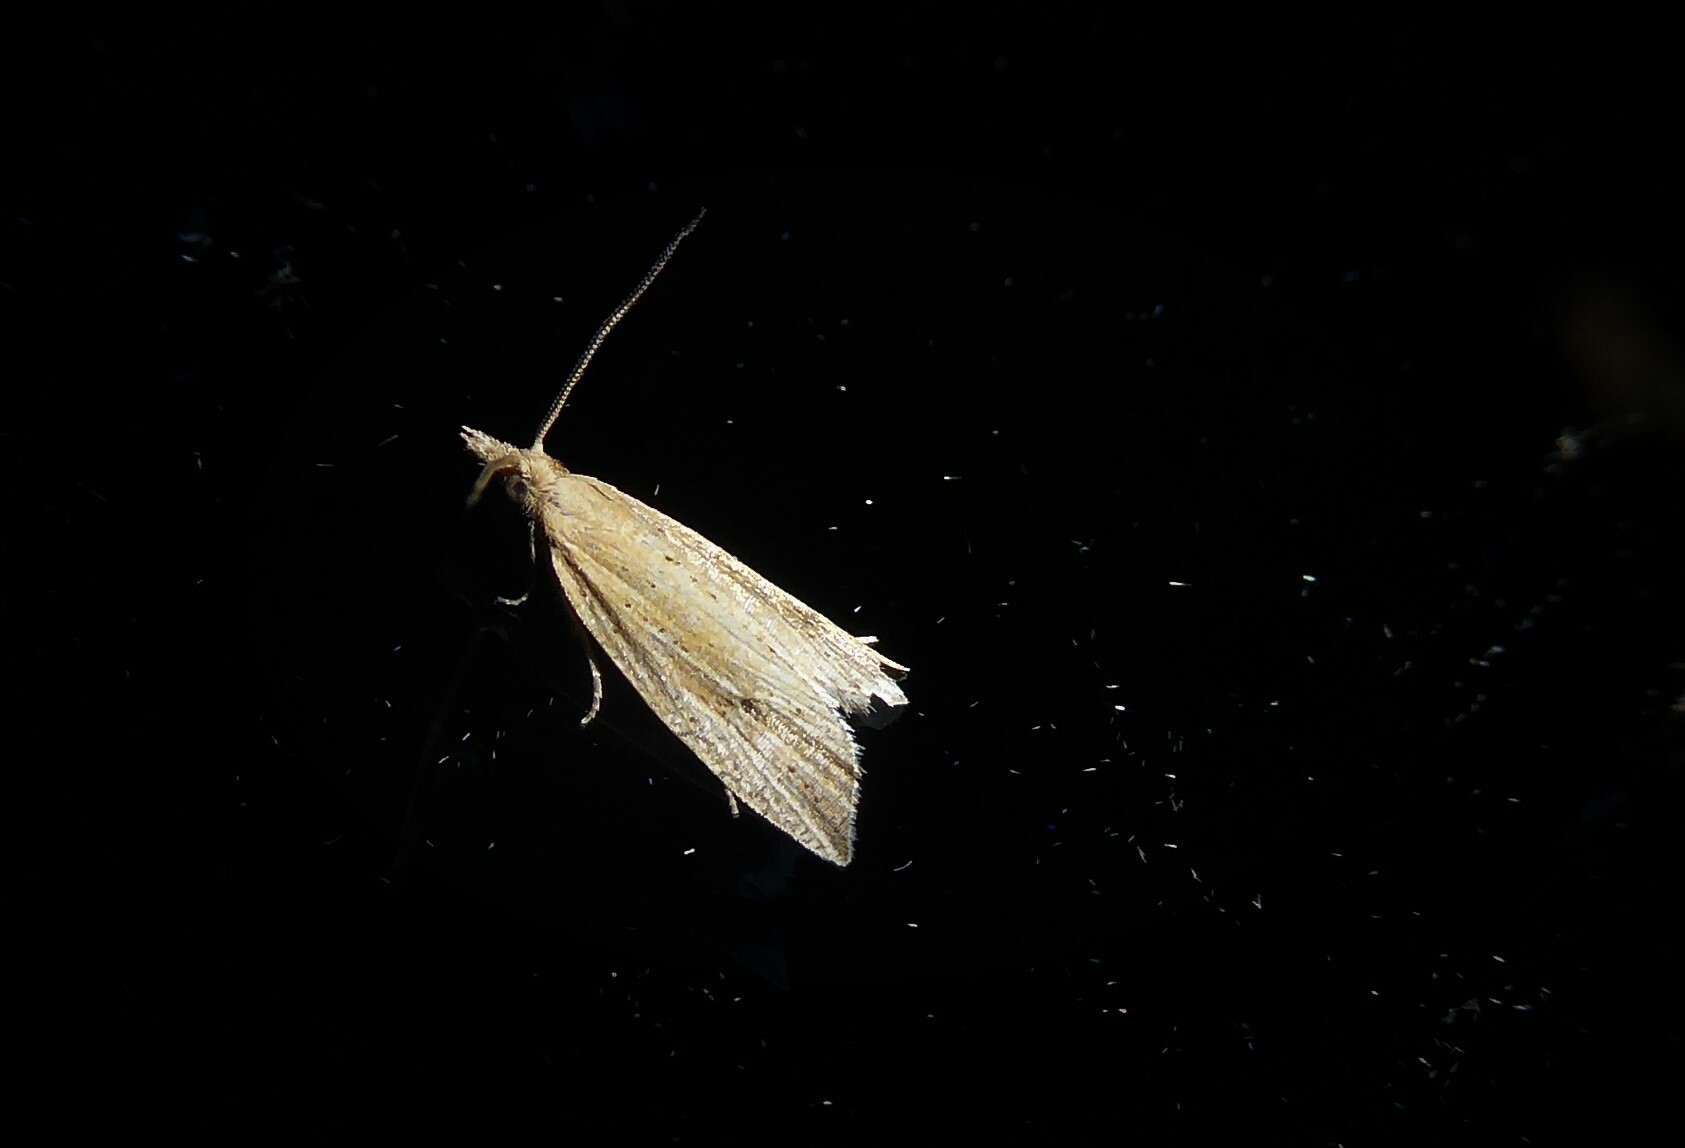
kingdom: Animalia
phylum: Arthropoda
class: Insecta
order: Lepidoptera
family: Tortricidae
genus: Bactra
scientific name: Bactra noteraula
